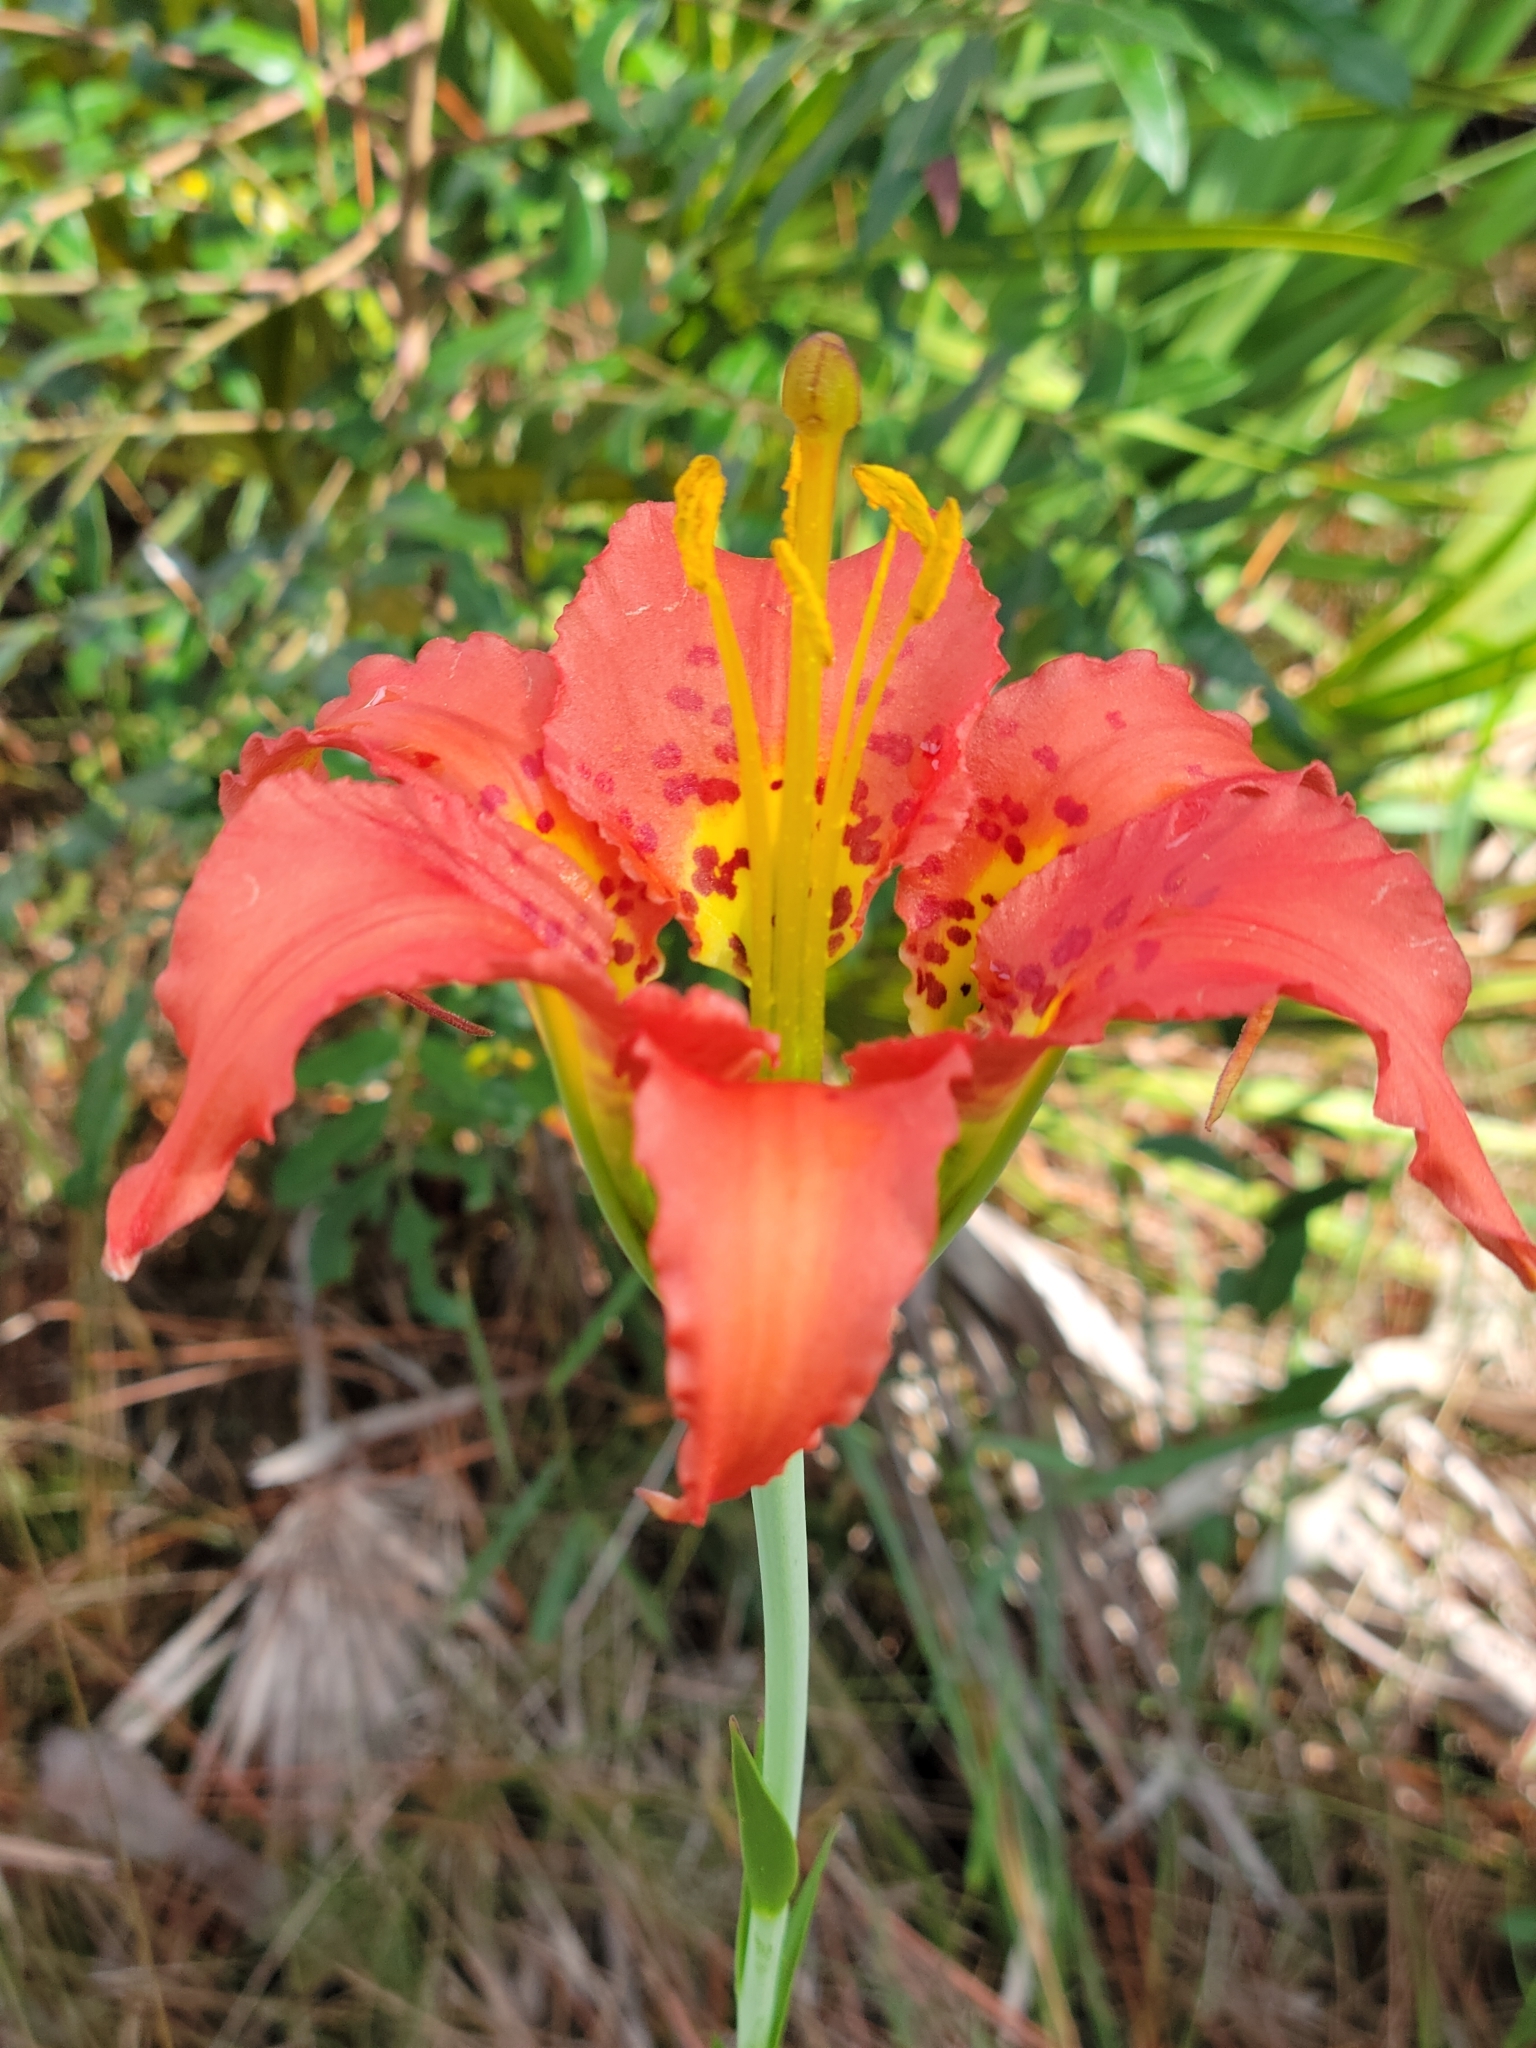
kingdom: Plantae
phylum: Tracheophyta
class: Liliopsida
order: Liliales
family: Liliaceae
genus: Lilium
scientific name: Lilium catesbaei
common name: Catesby's lily
